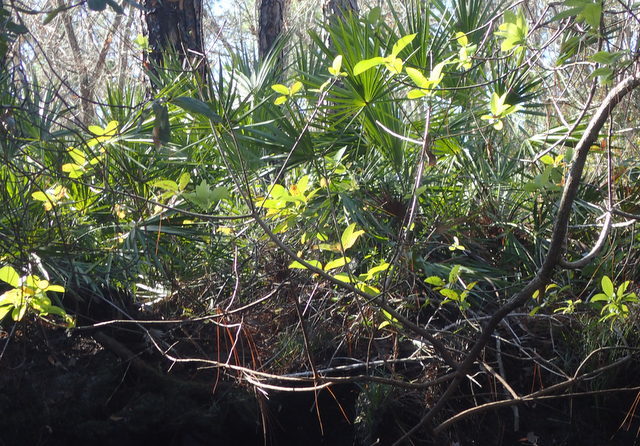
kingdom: Plantae
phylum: Tracheophyta
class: Magnoliopsida
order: Cornales
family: Nyssaceae
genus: Nyssa
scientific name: Nyssa ogeche
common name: Ogeechee tupelo
